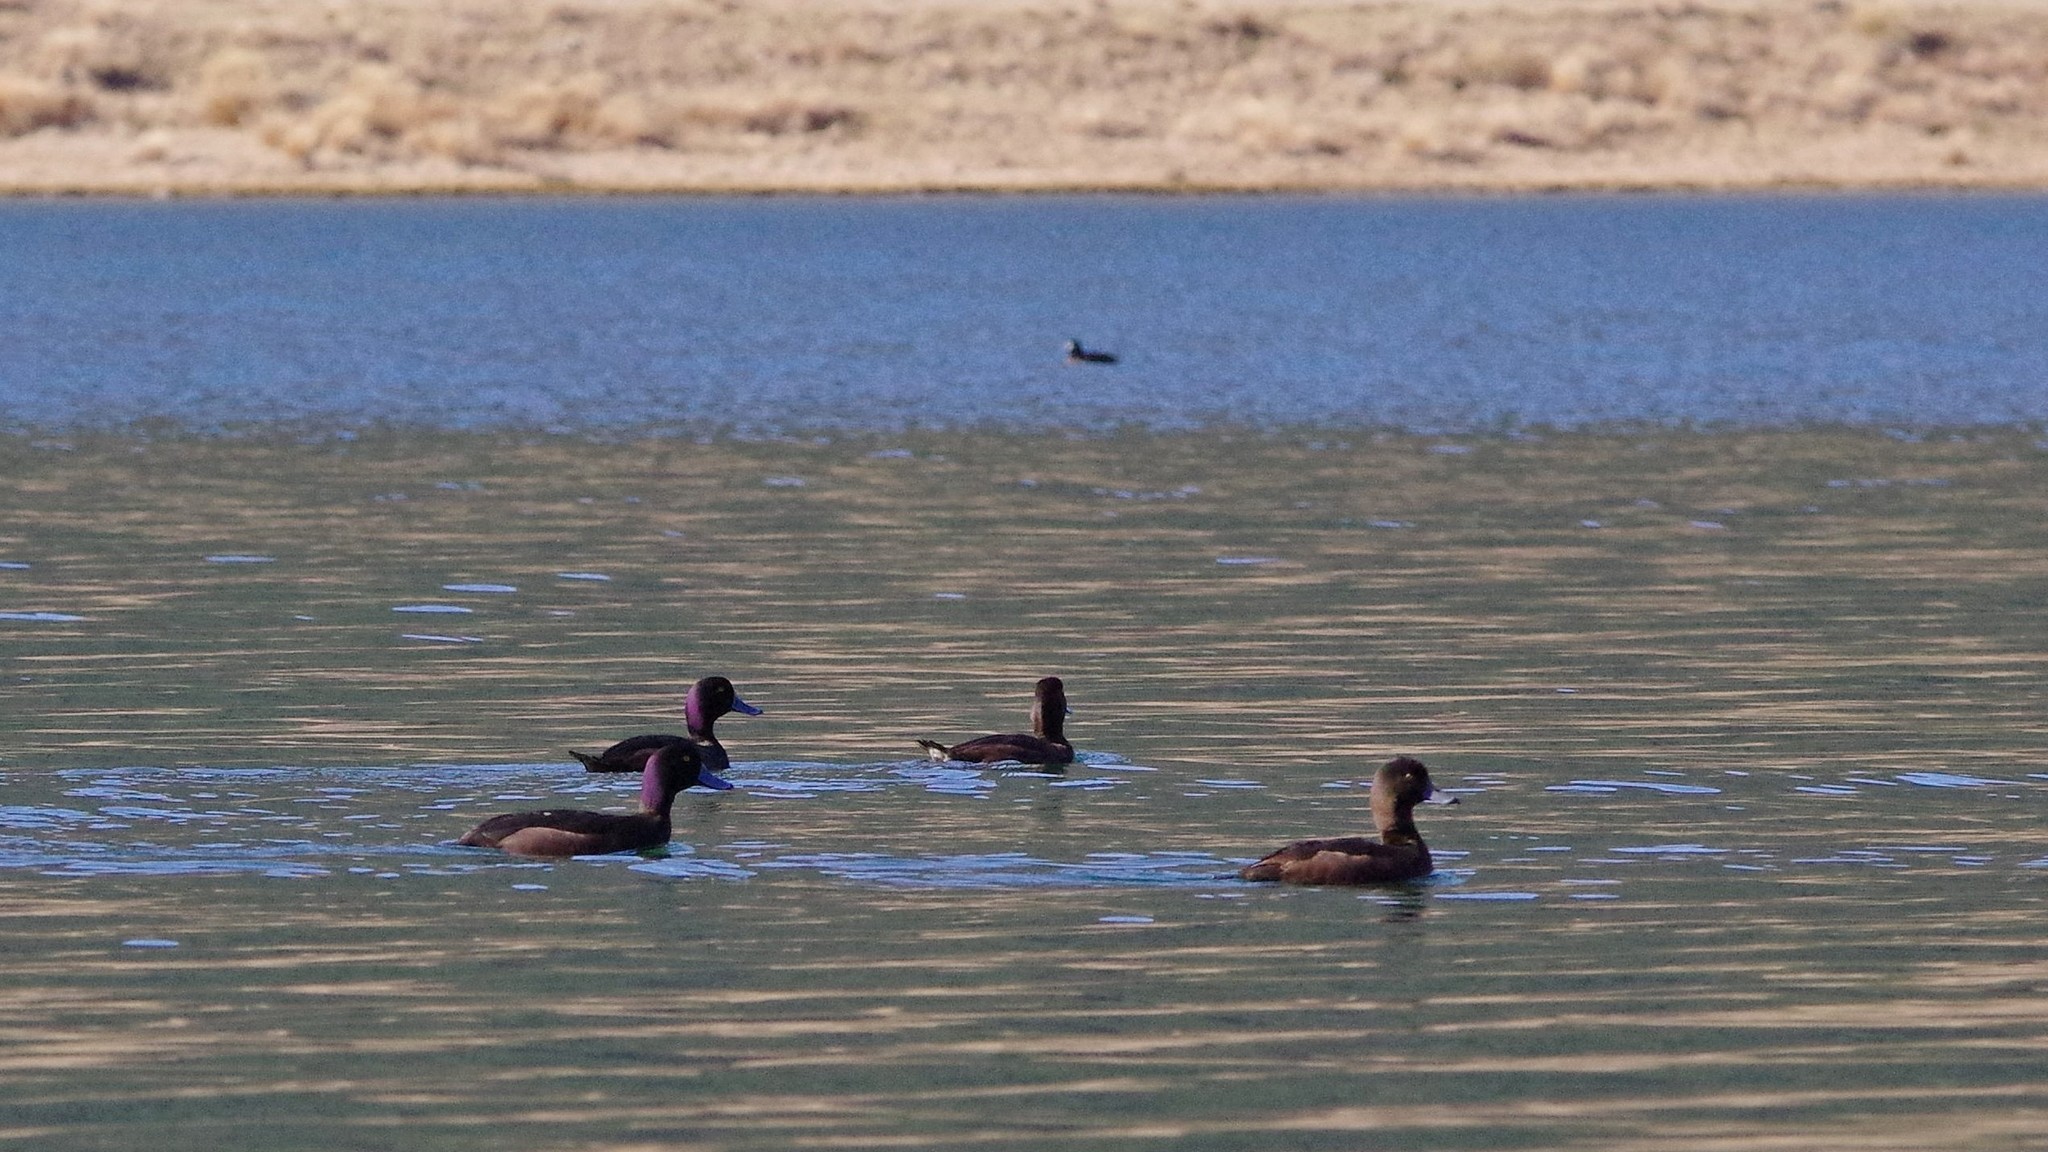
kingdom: Animalia
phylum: Chordata
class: Aves
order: Anseriformes
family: Anatidae
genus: Aythya
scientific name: Aythya novaeseelandiae
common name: New zealand scaup
